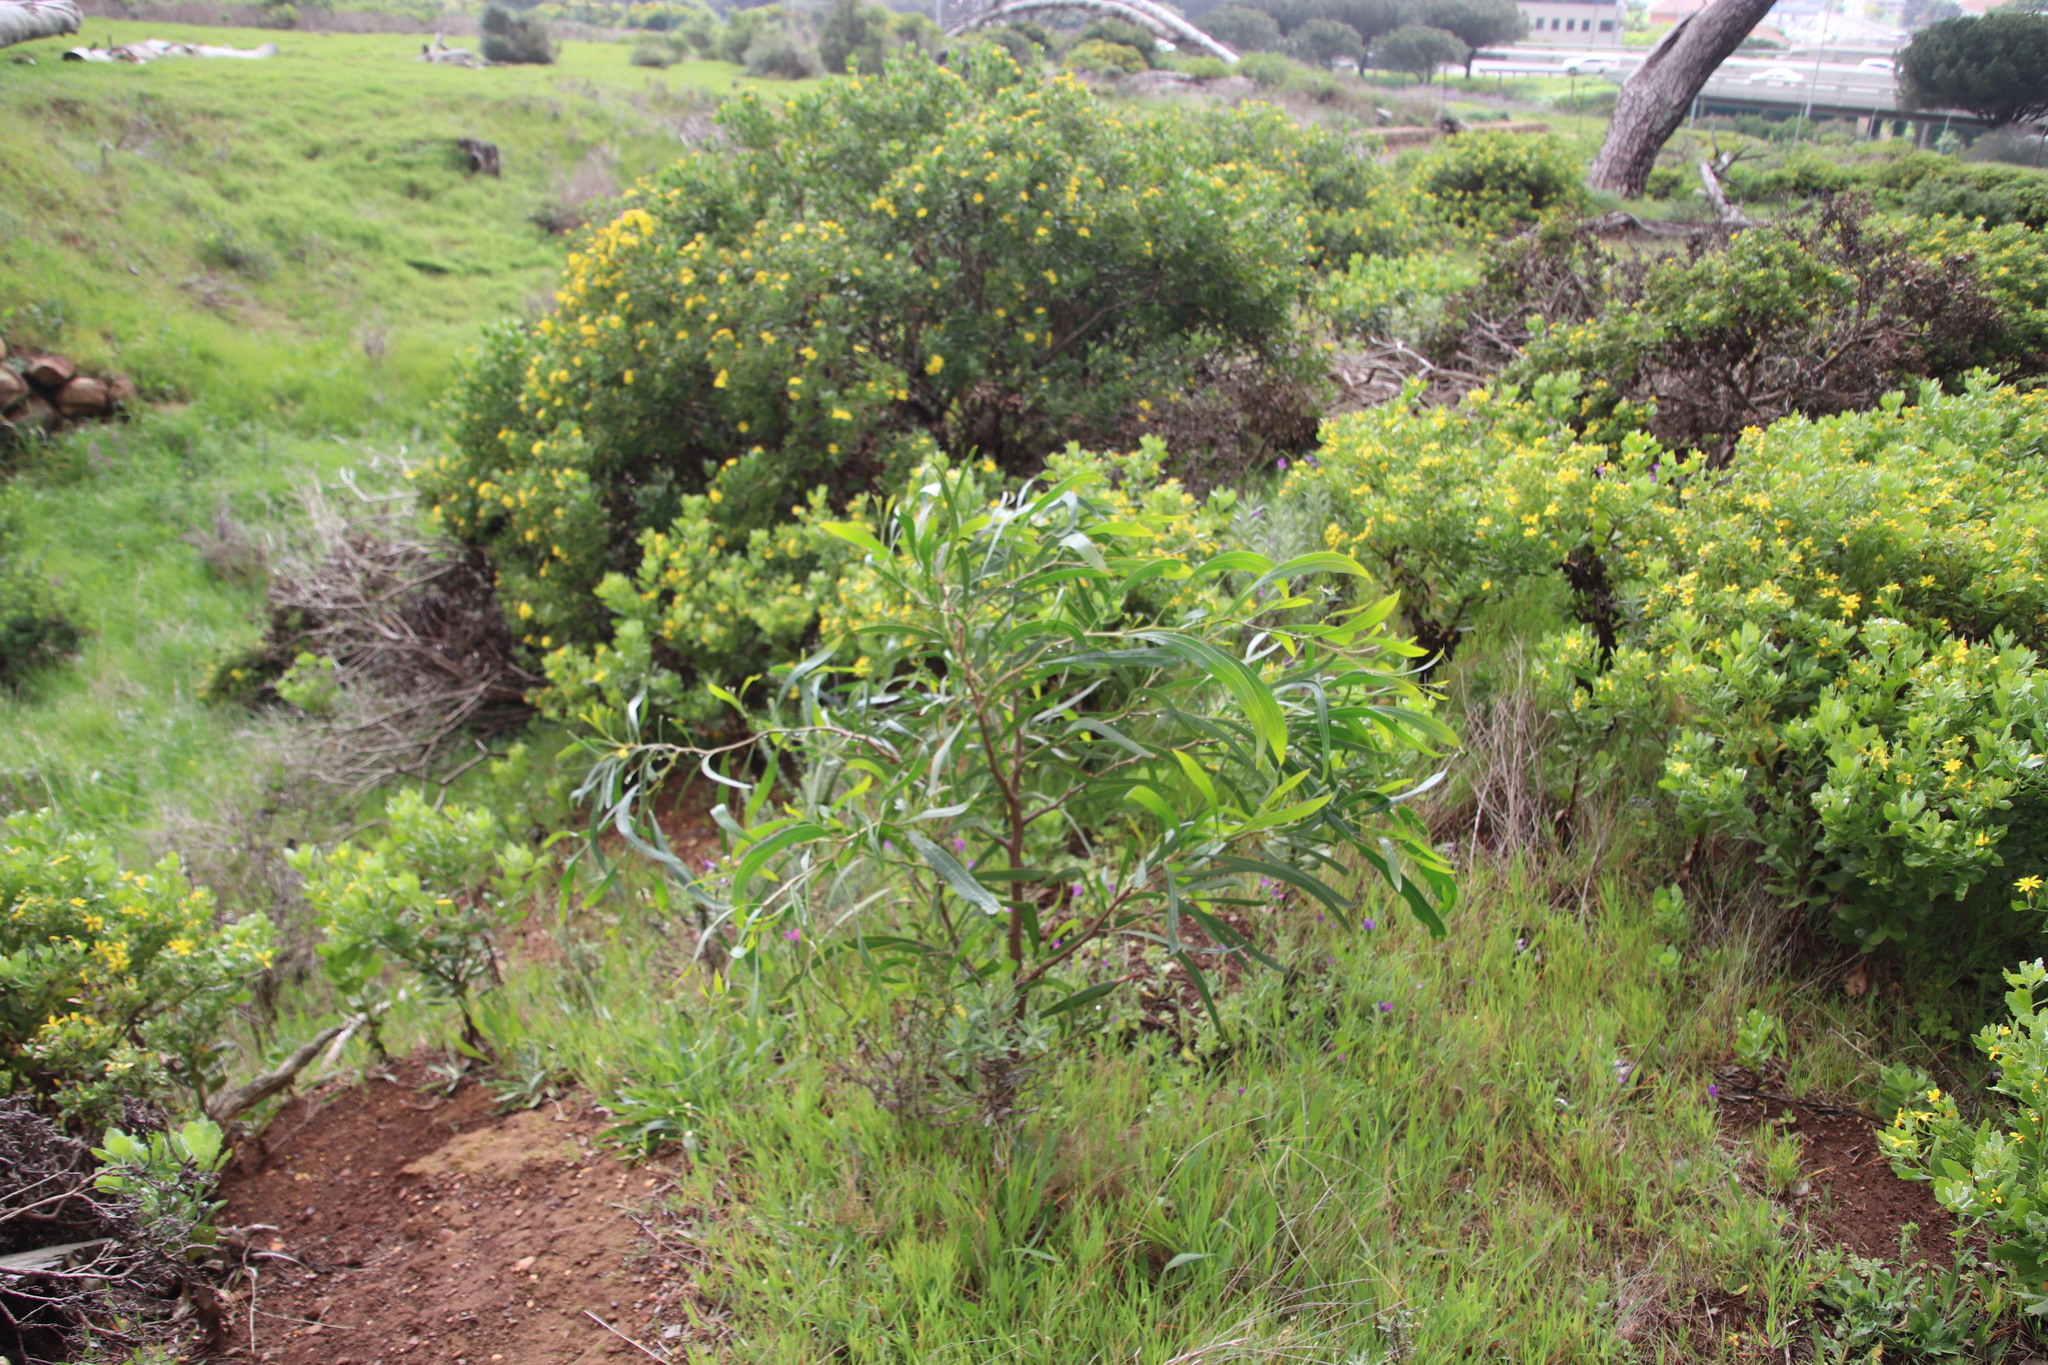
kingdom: Plantae
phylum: Tracheophyta
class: Magnoliopsida
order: Fabales
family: Fabaceae
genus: Acacia
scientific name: Acacia saligna
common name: Orange wattle
